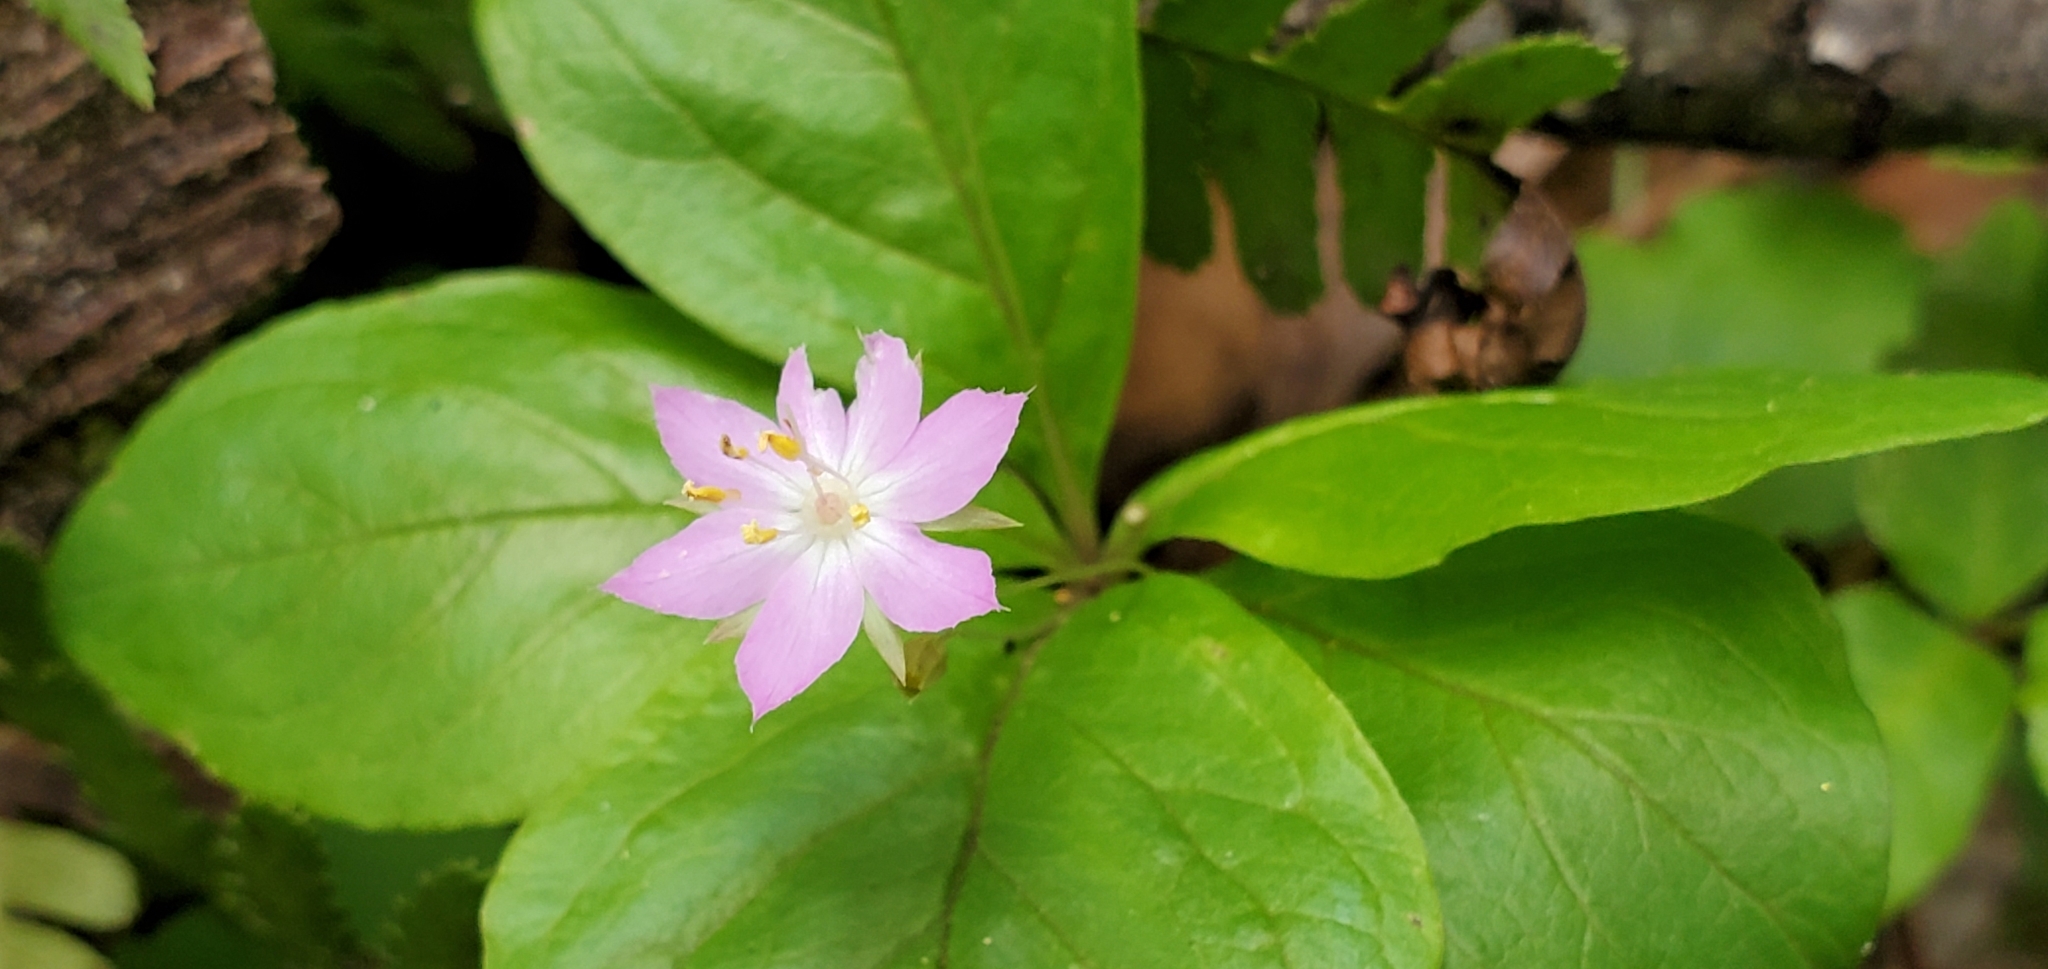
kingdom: Plantae
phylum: Tracheophyta
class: Magnoliopsida
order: Ericales
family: Primulaceae
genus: Lysimachia
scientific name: Lysimachia latifolia
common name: Pacific starflower
